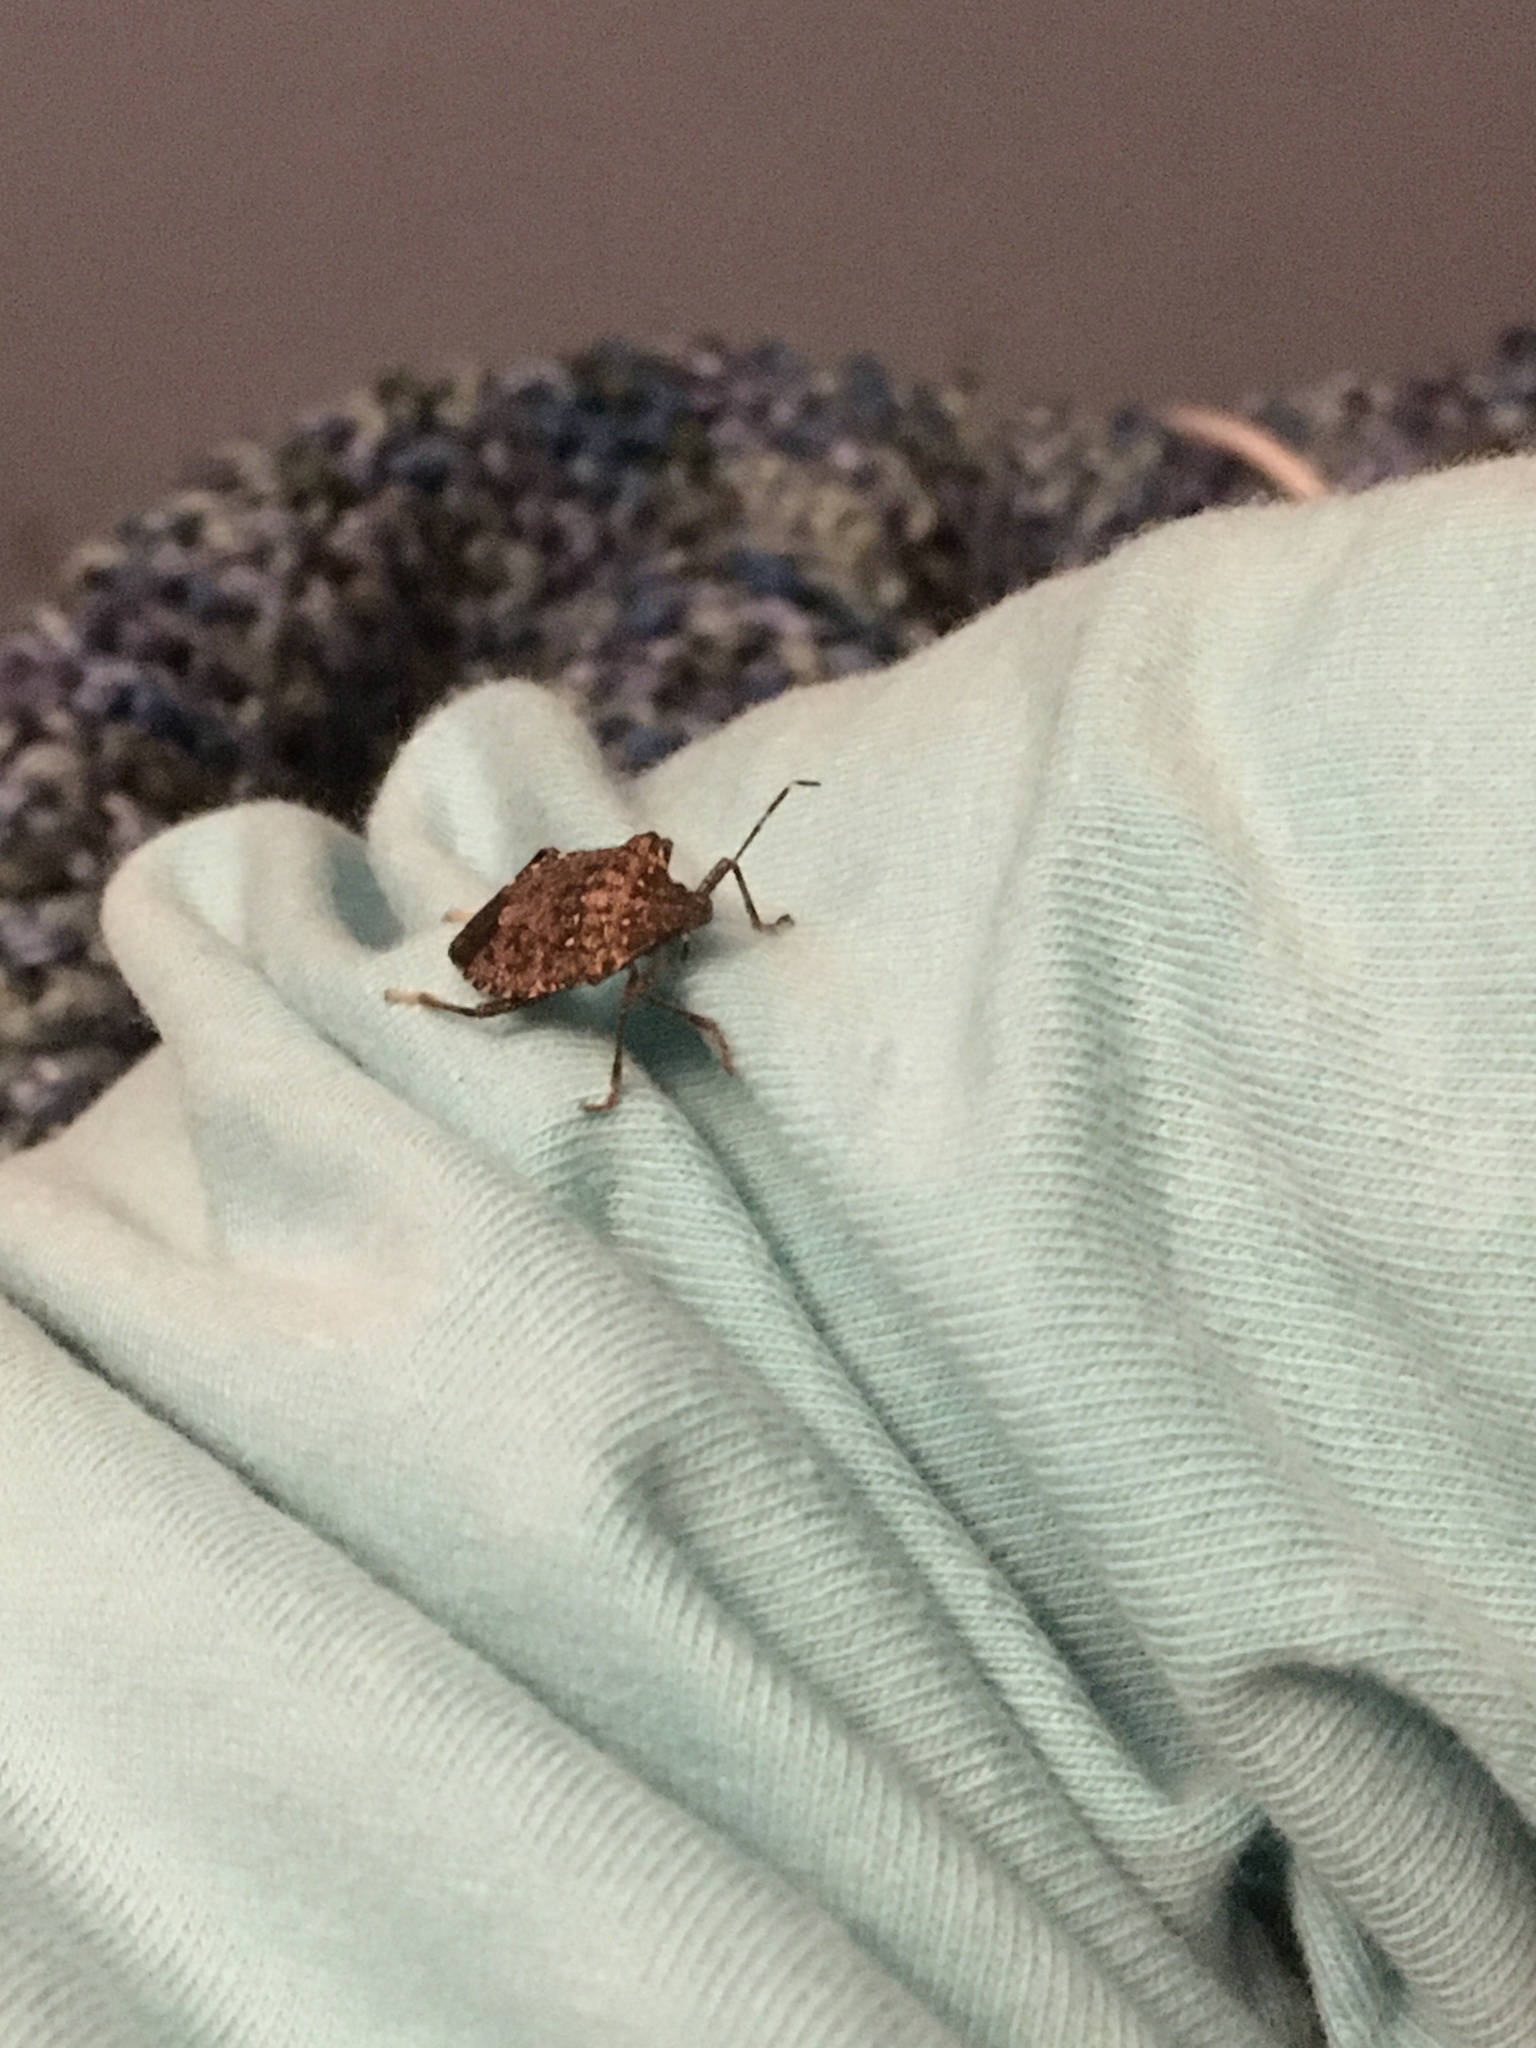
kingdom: Animalia
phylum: Arthropoda
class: Insecta
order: Hemiptera
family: Pentatomidae
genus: Halyomorpha
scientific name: Halyomorpha halys
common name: Brown marmorated stink bug
